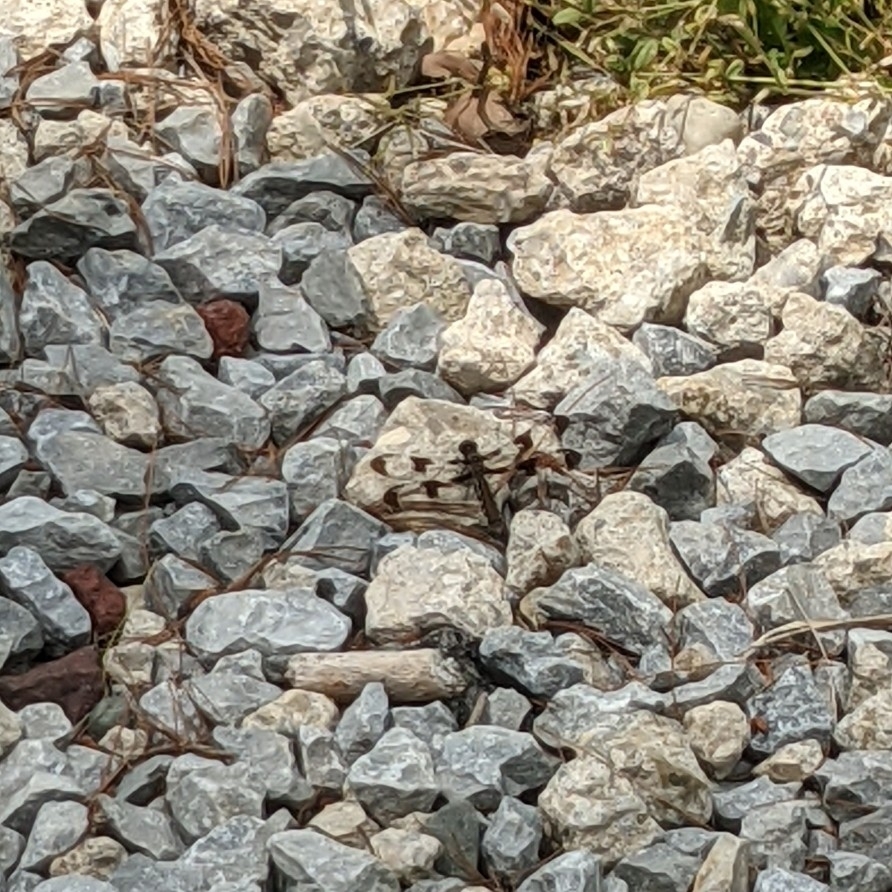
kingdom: Animalia
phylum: Arthropoda
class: Insecta
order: Odonata
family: Libellulidae
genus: Plathemis
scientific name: Plathemis lydia
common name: Common whitetail
